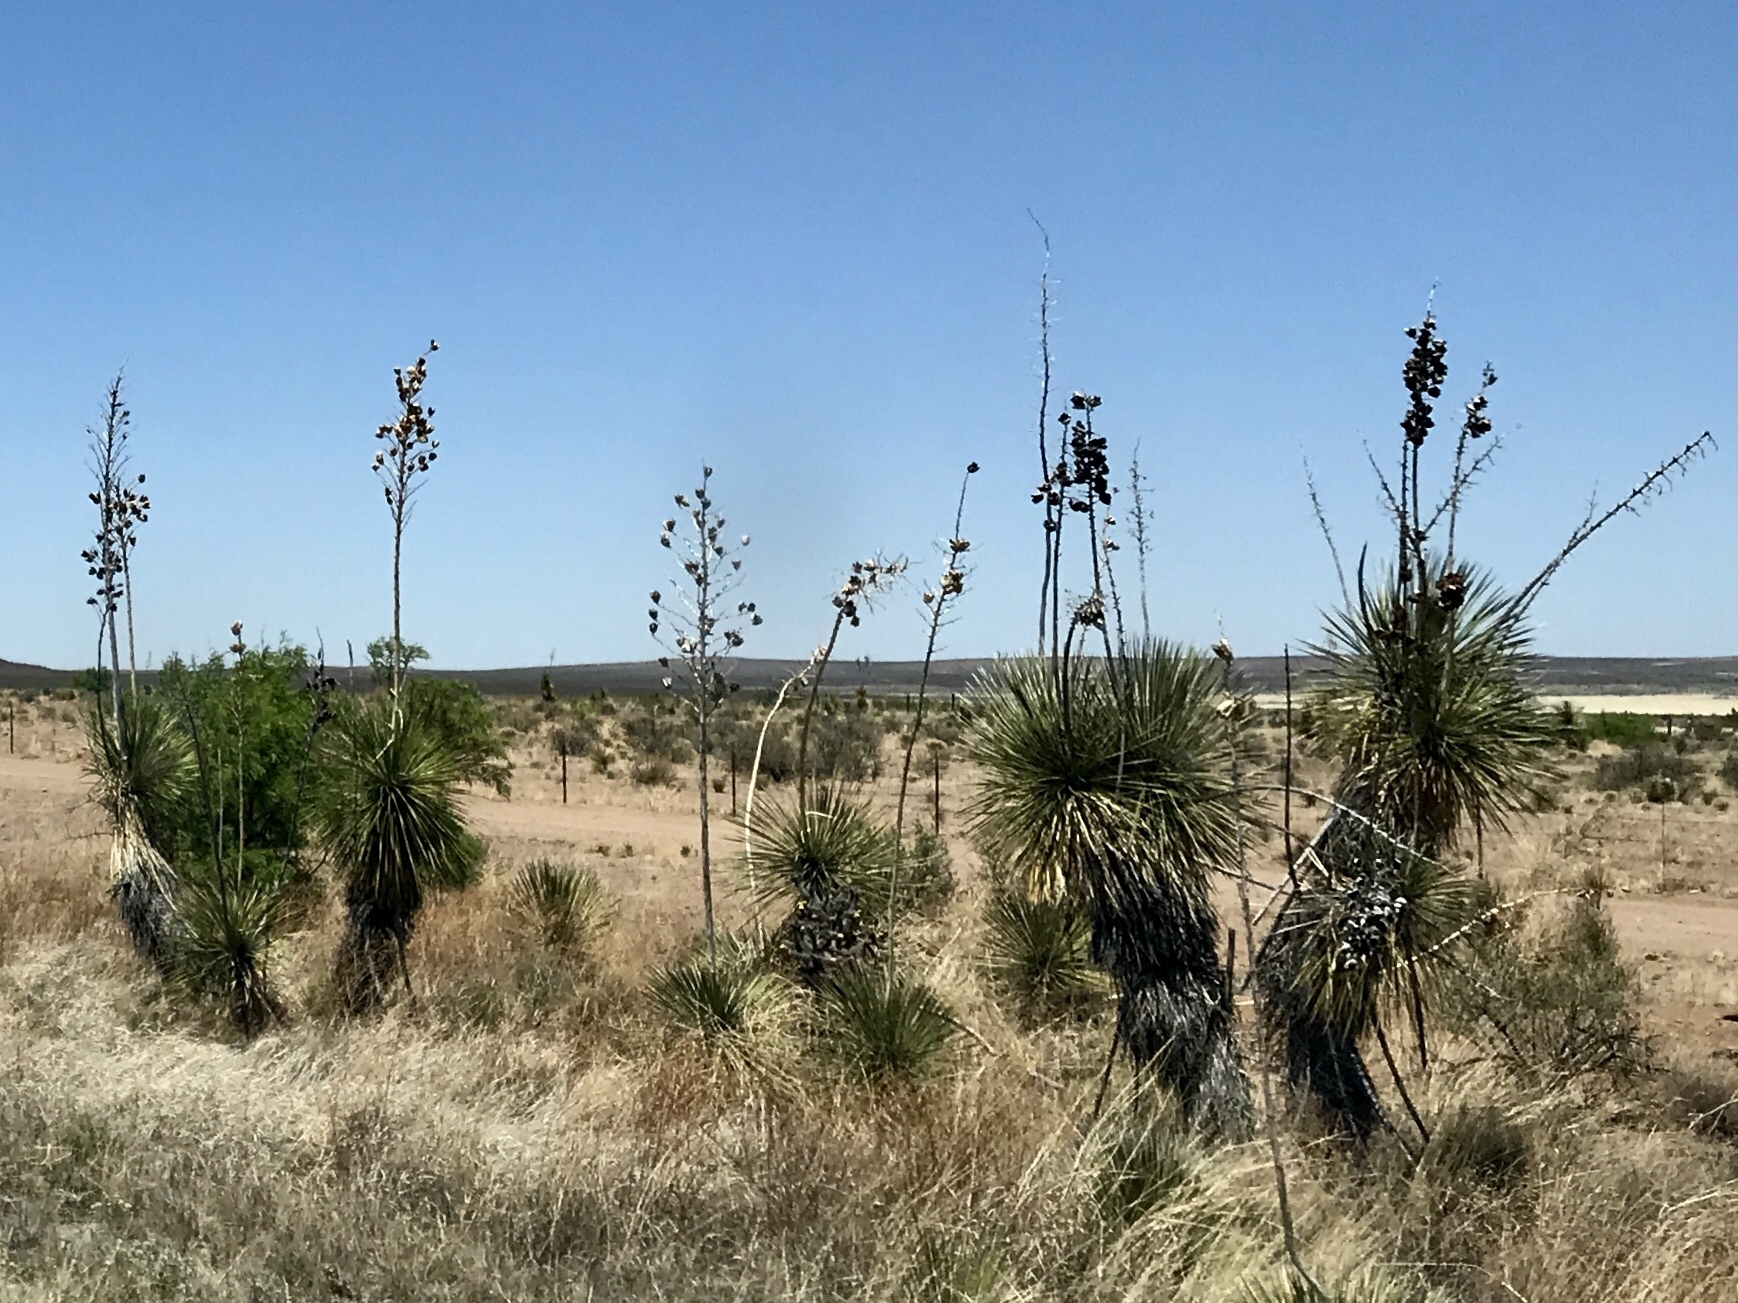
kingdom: Plantae
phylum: Tracheophyta
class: Liliopsida
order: Asparagales
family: Asparagaceae
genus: Yucca
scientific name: Yucca elata
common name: Palmella
